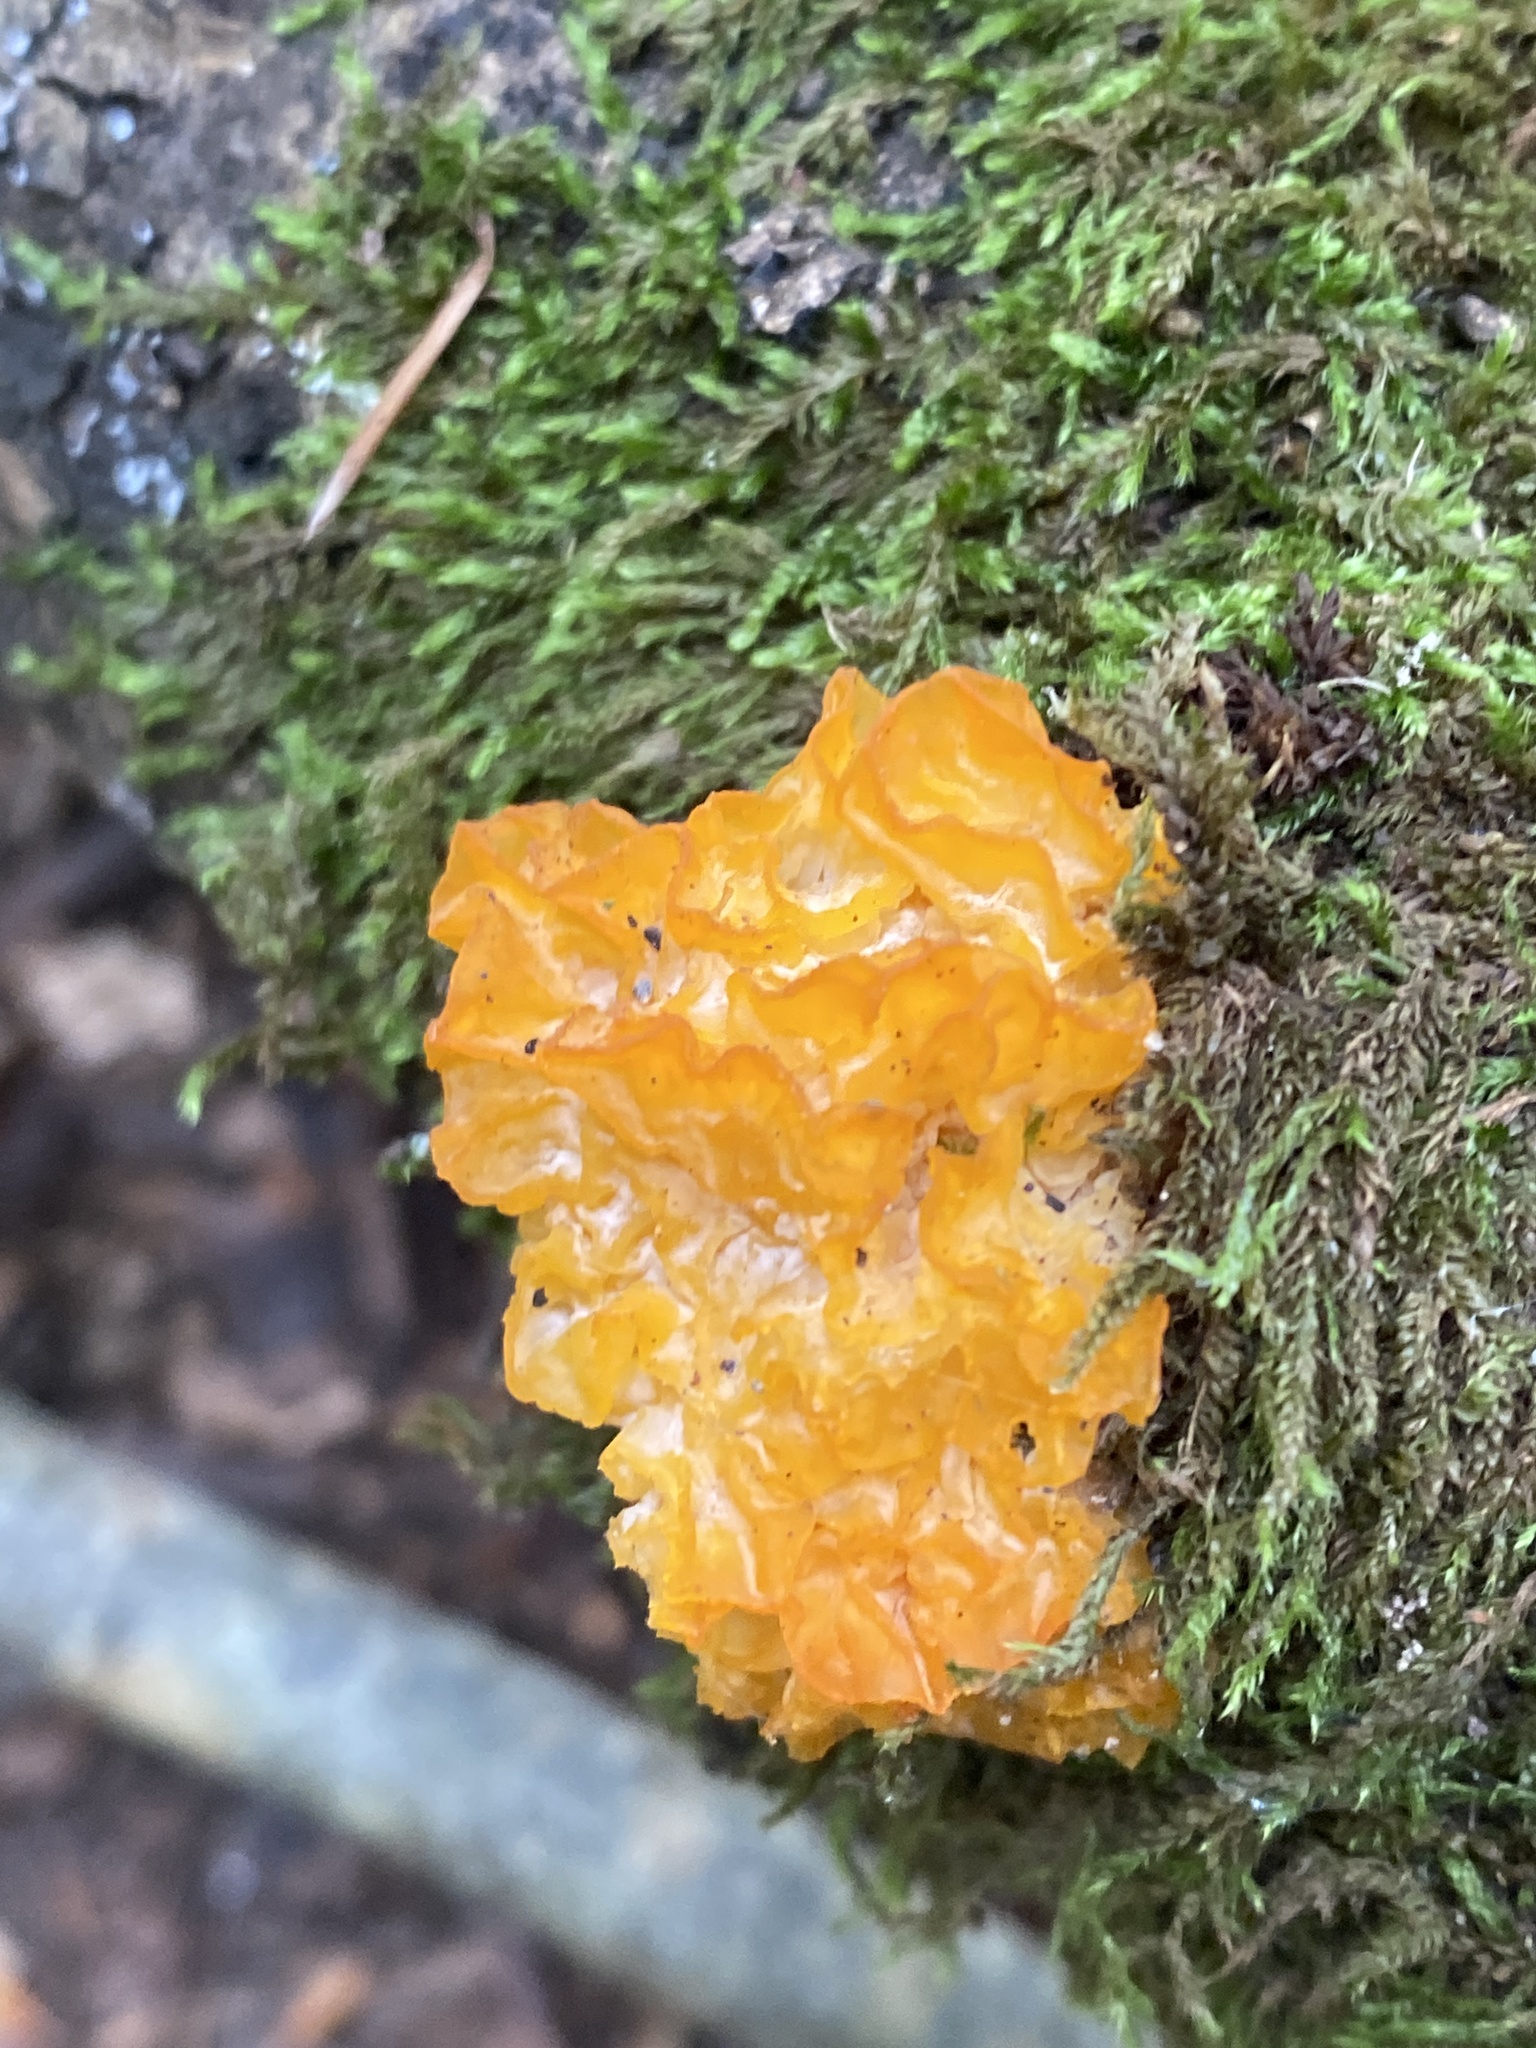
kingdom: Fungi
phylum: Basidiomycota
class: Tremellomycetes
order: Tremellales
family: Tremellaceae
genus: Tremella
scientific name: Tremella mesenterica
